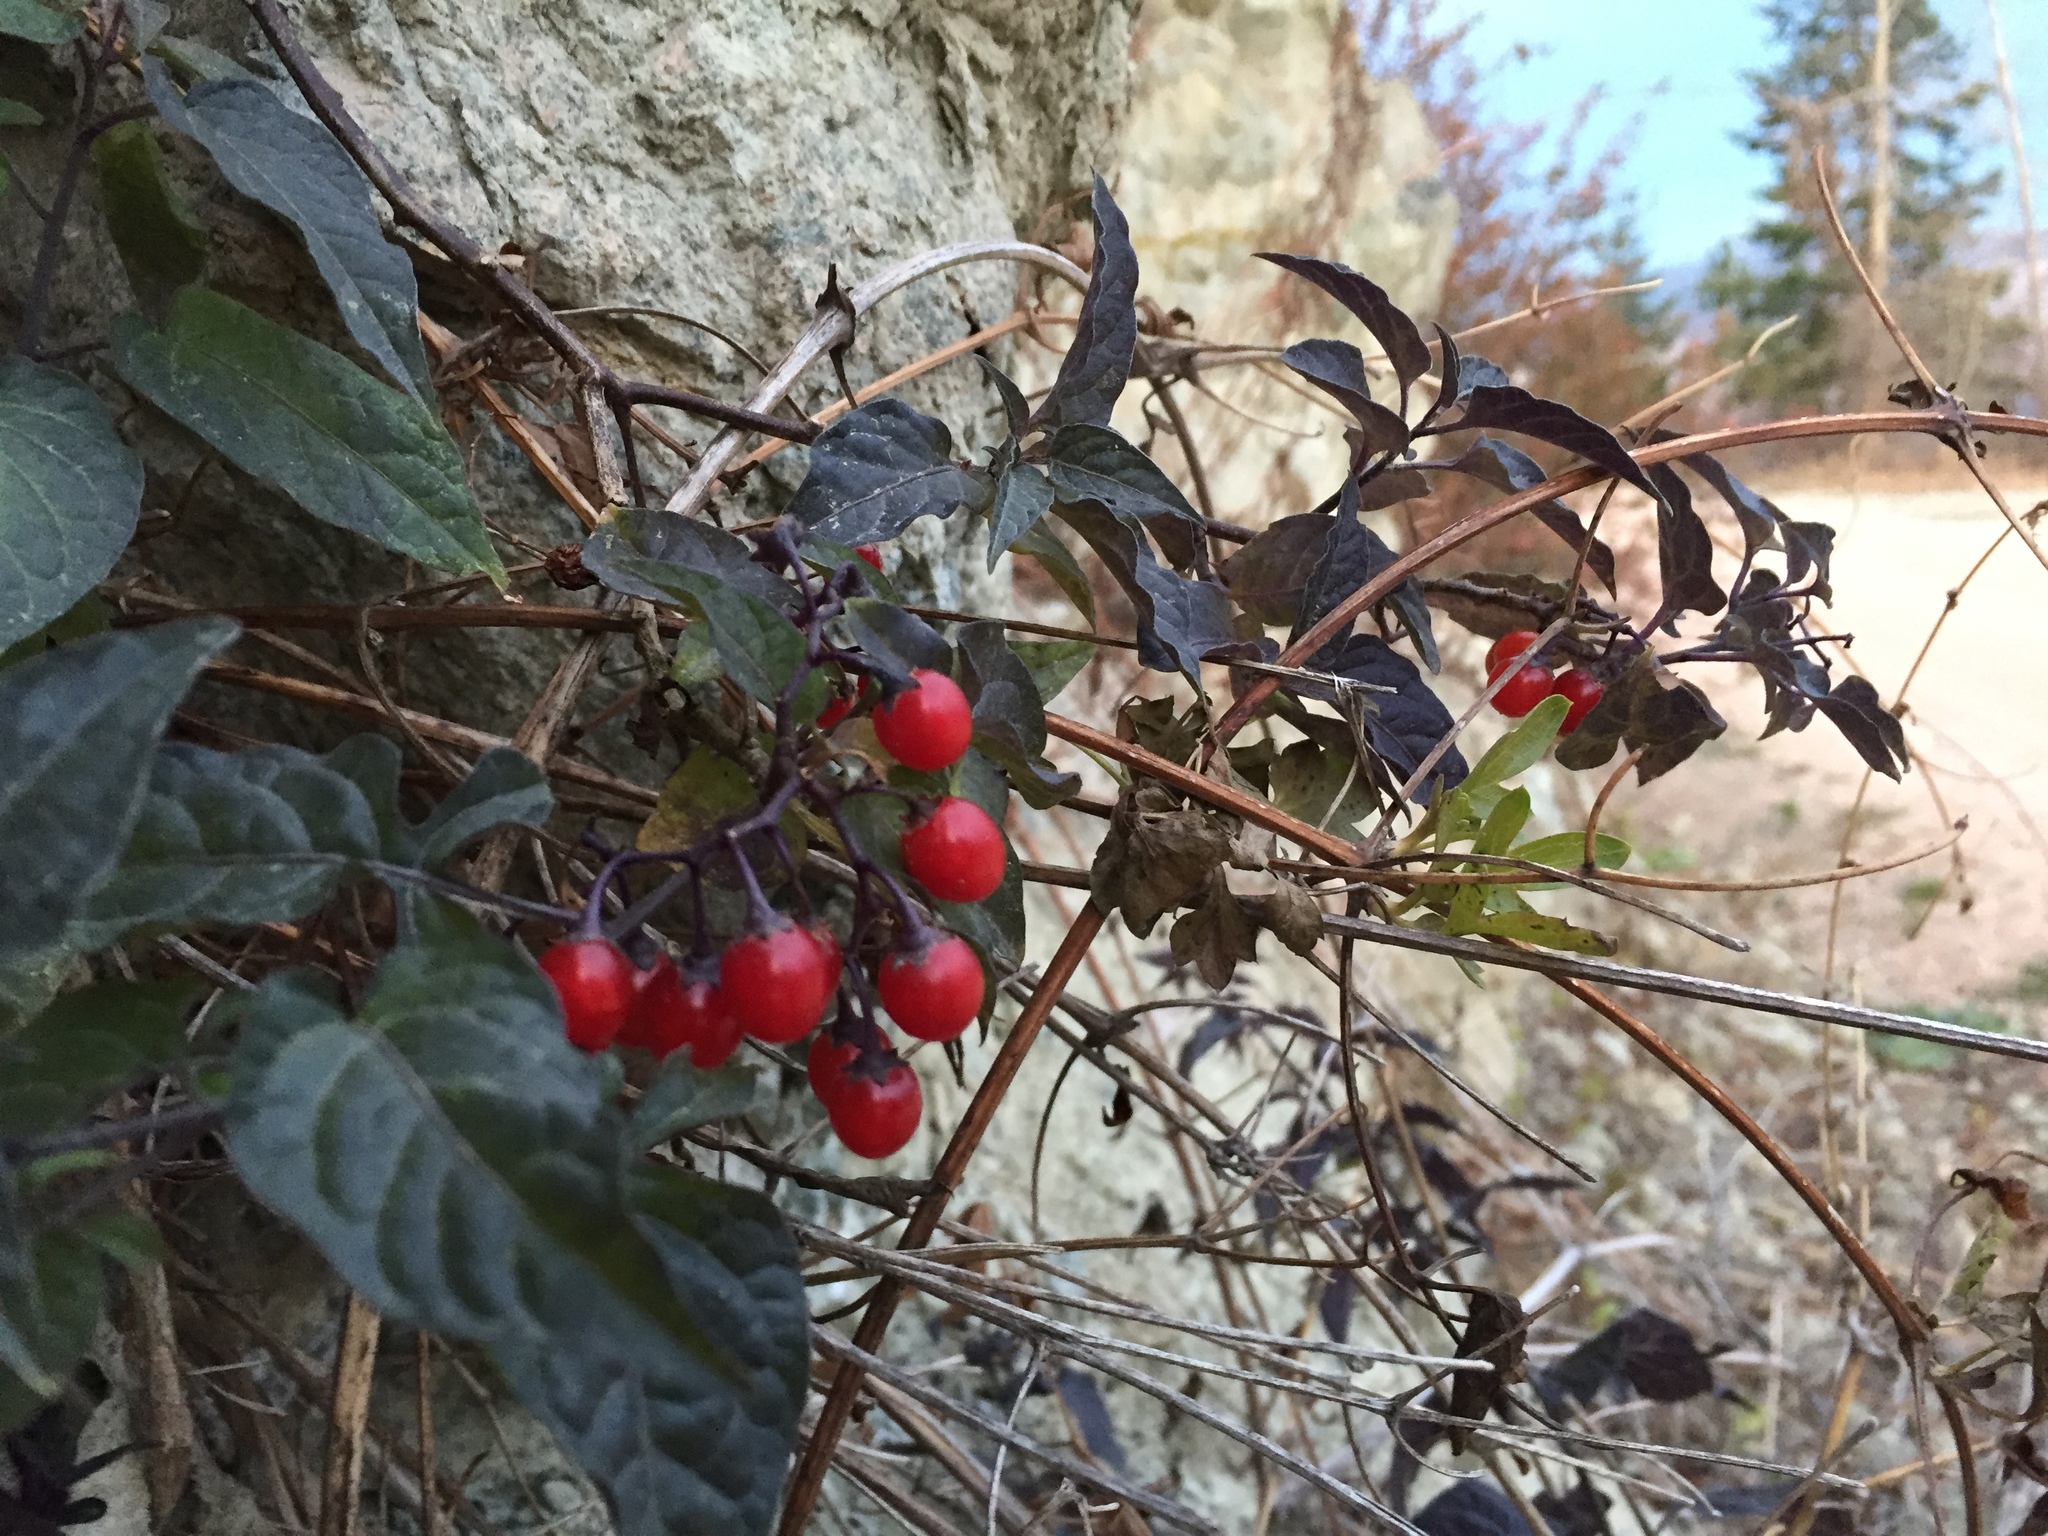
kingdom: Plantae
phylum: Tracheophyta
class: Magnoliopsida
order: Solanales
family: Solanaceae
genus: Solanum
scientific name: Solanum dulcamara
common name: Climbing nightshade
